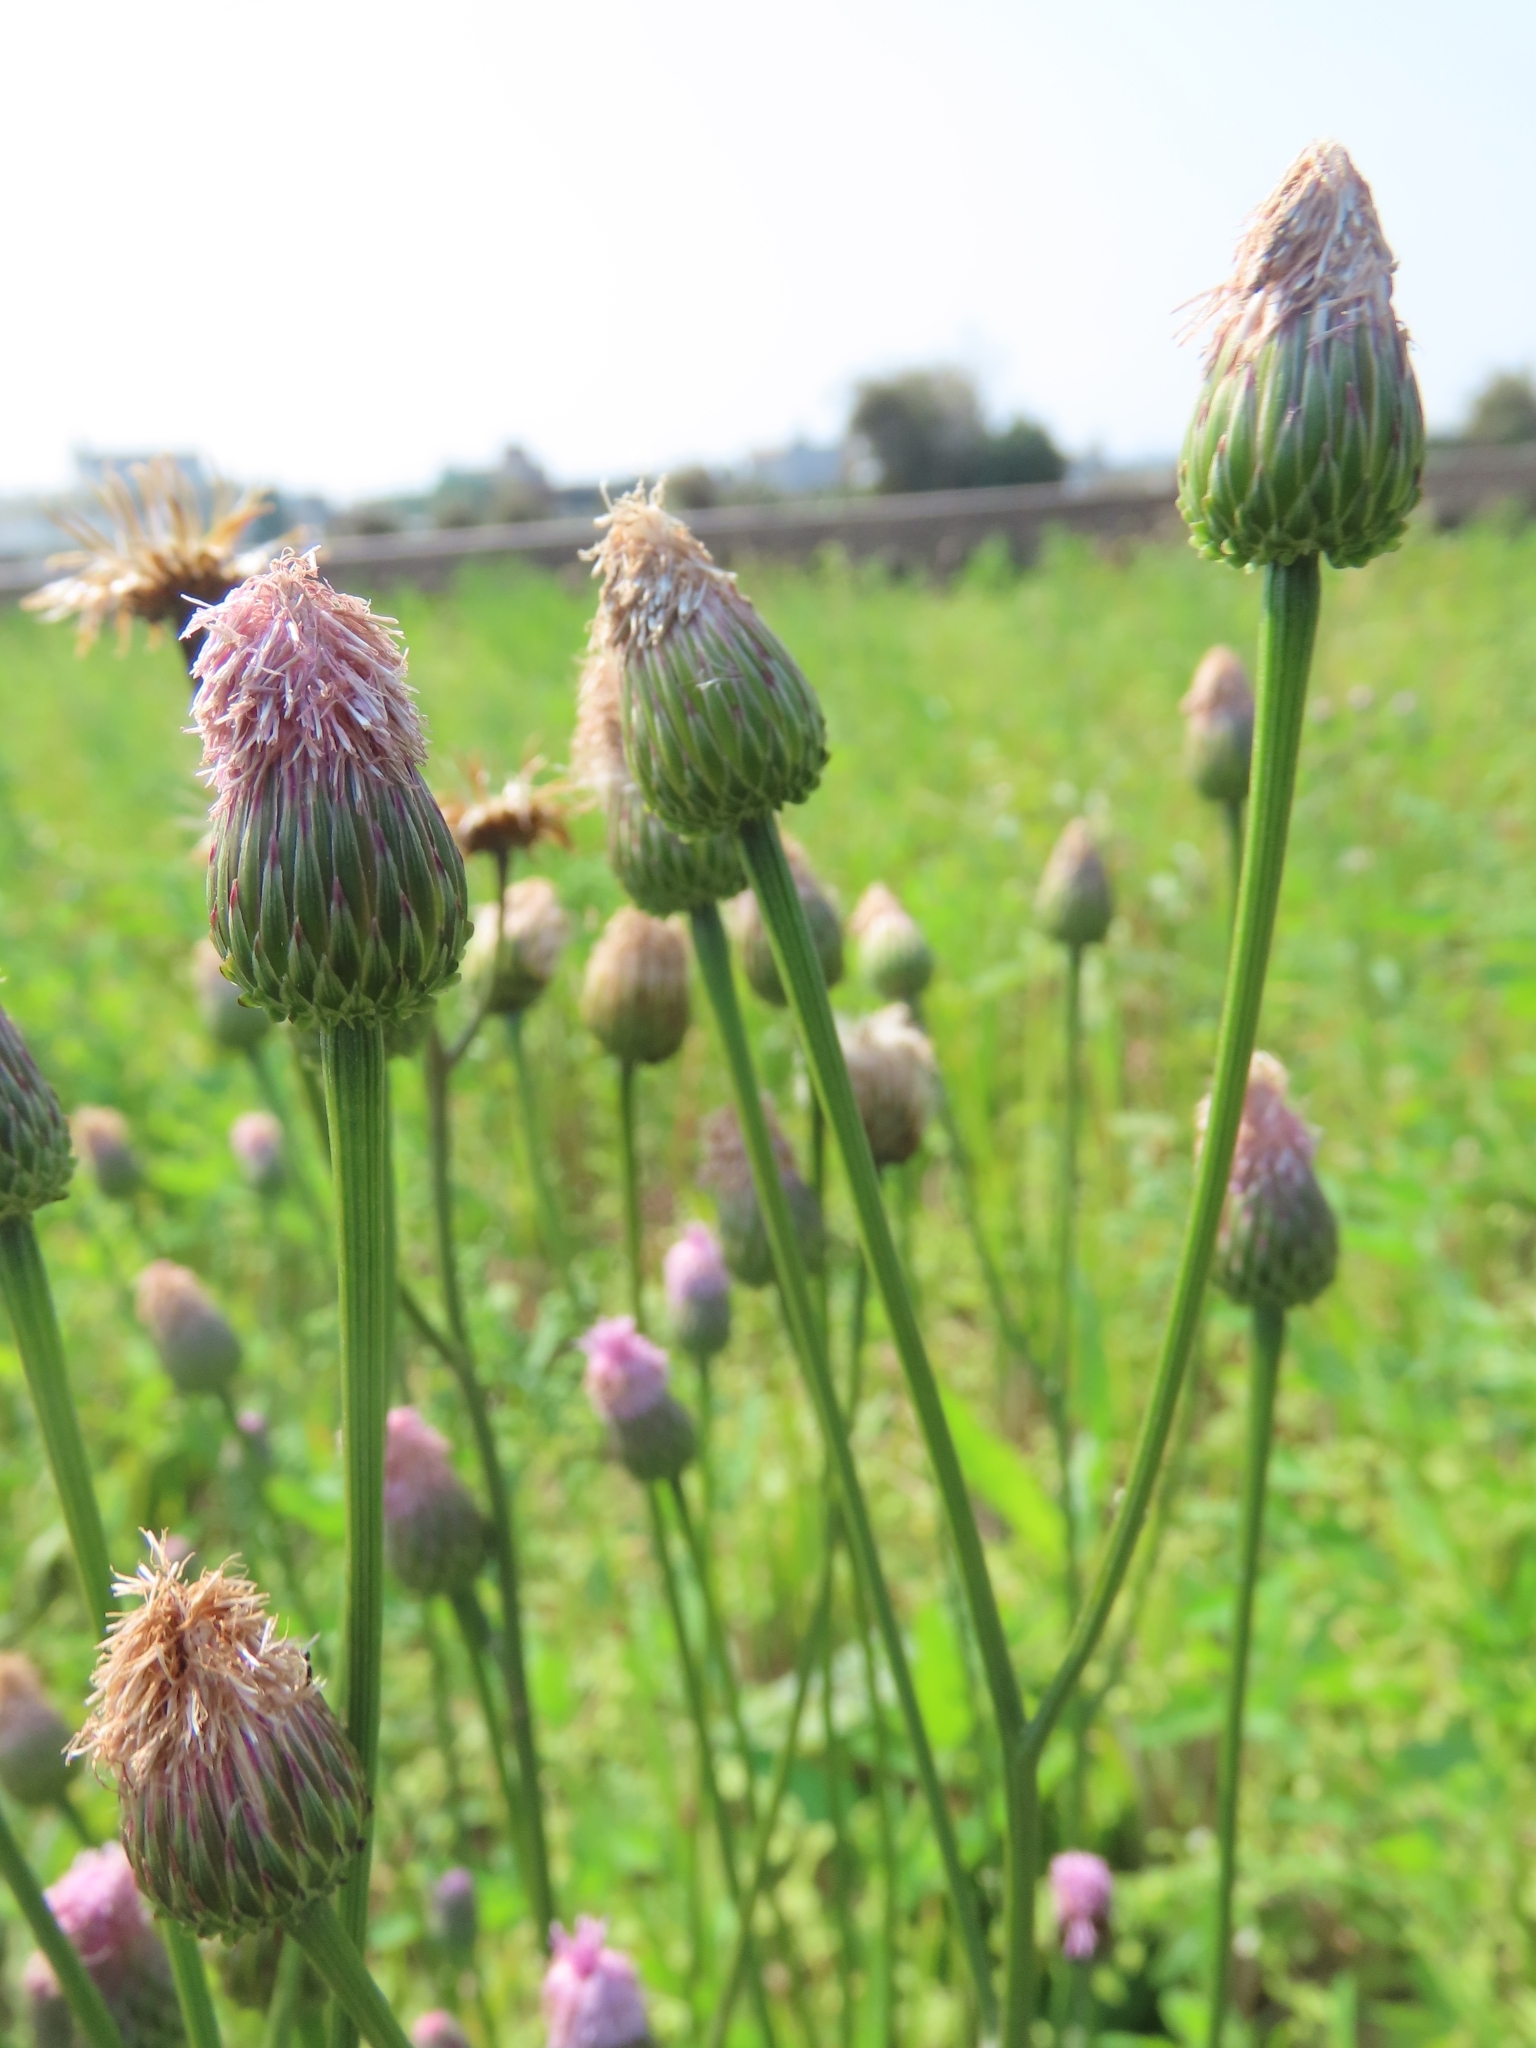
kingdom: Plantae
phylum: Tracheophyta
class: Magnoliopsida
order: Asterales
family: Asteraceae
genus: Saussurea
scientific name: Saussurea lyrata
